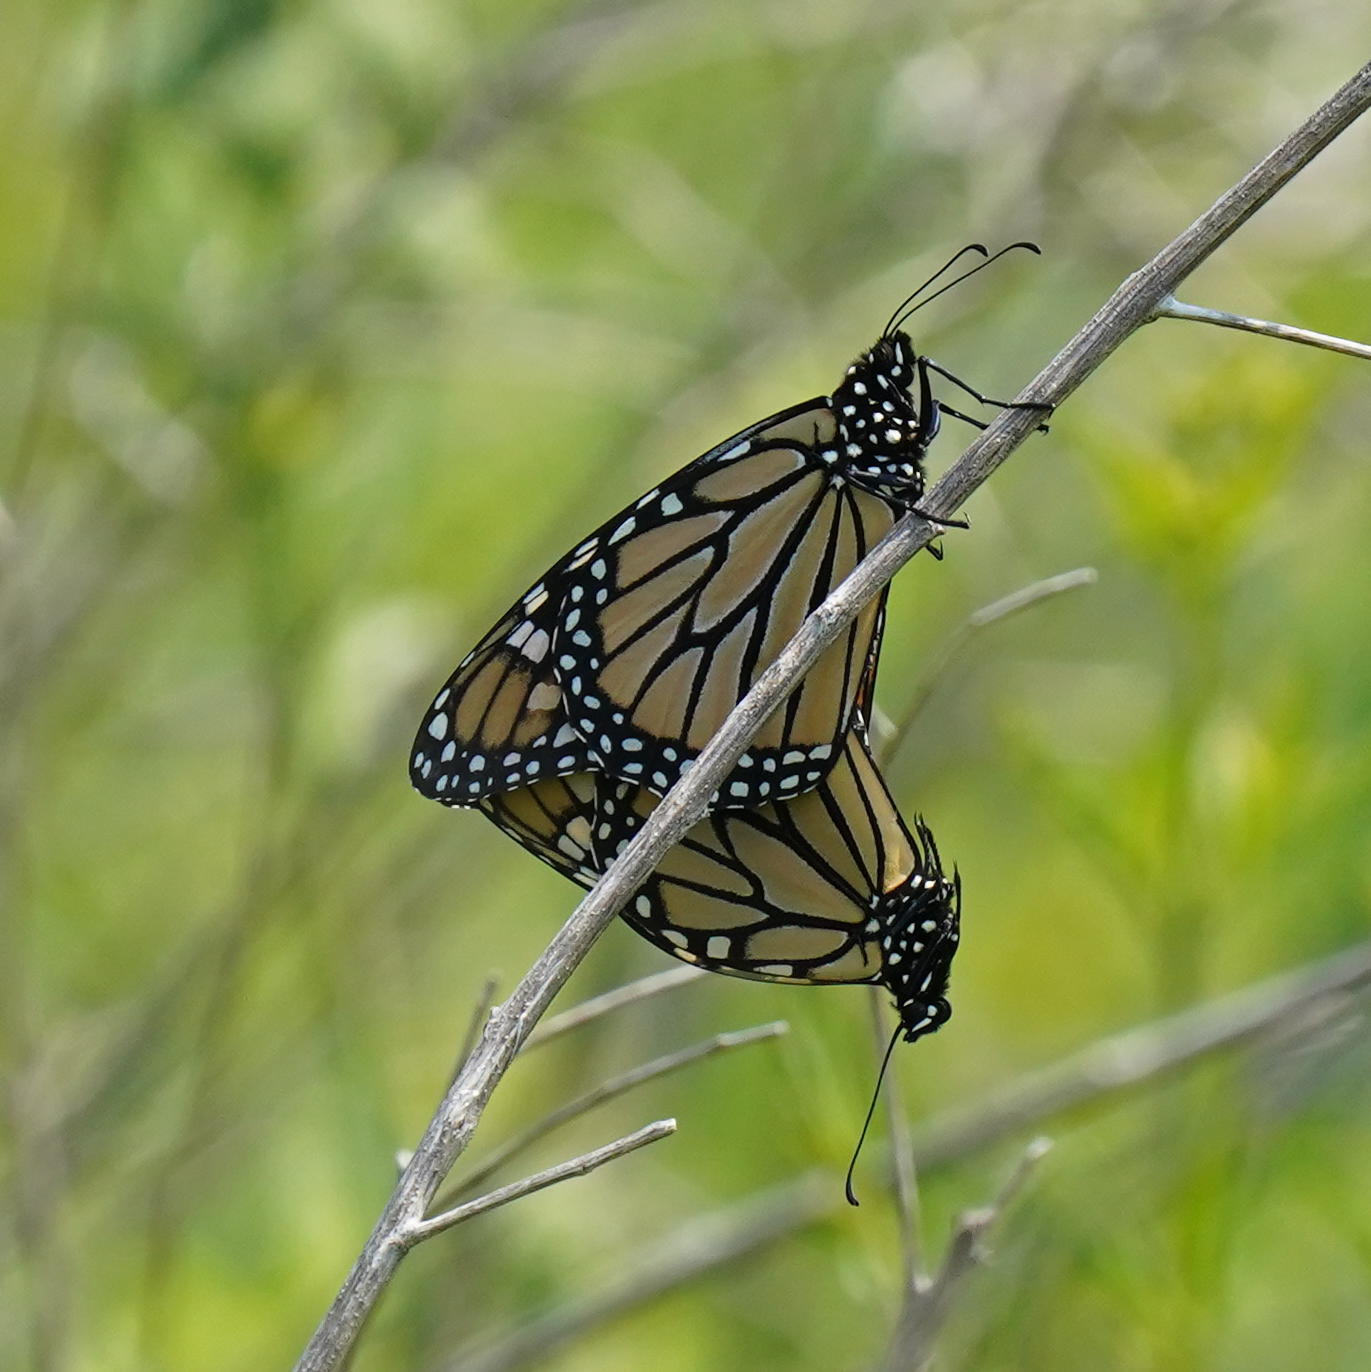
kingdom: Animalia
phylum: Arthropoda
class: Insecta
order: Lepidoptera
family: Nymphalidae
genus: Danaus
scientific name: Danaus plexippus
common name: Monarch
